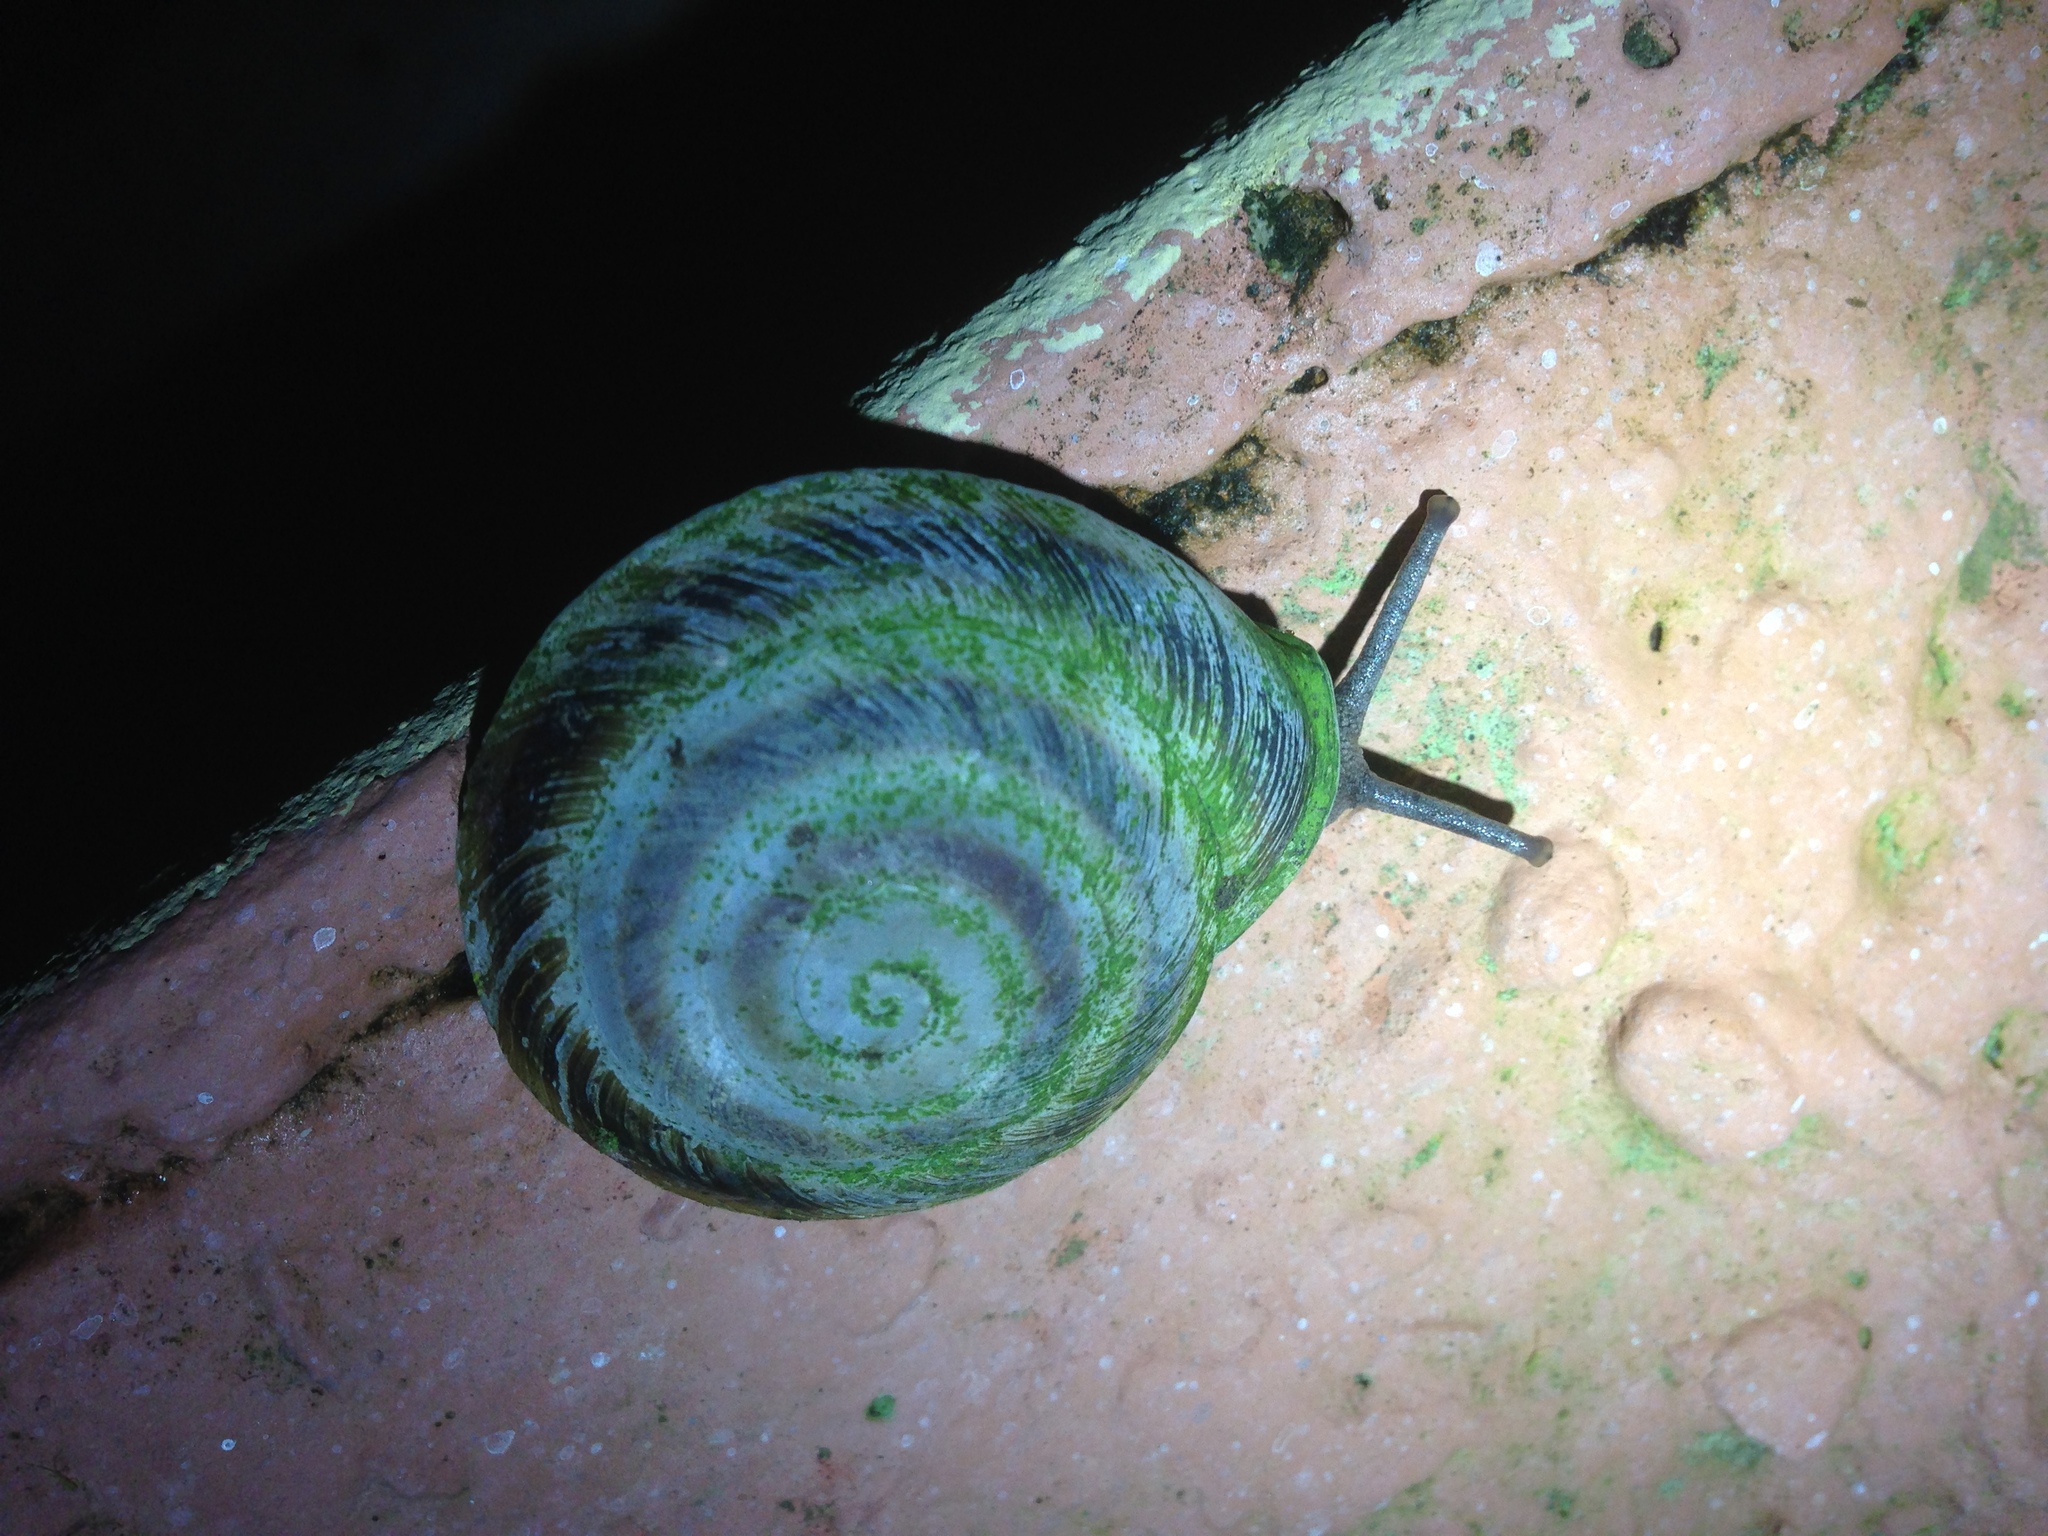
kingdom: Animalia
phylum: Mollusca
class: Gastropoda
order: Stylommatophora
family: Solaropsidae
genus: Caracolus
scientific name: Caracolus marginella
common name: Banded caracol
